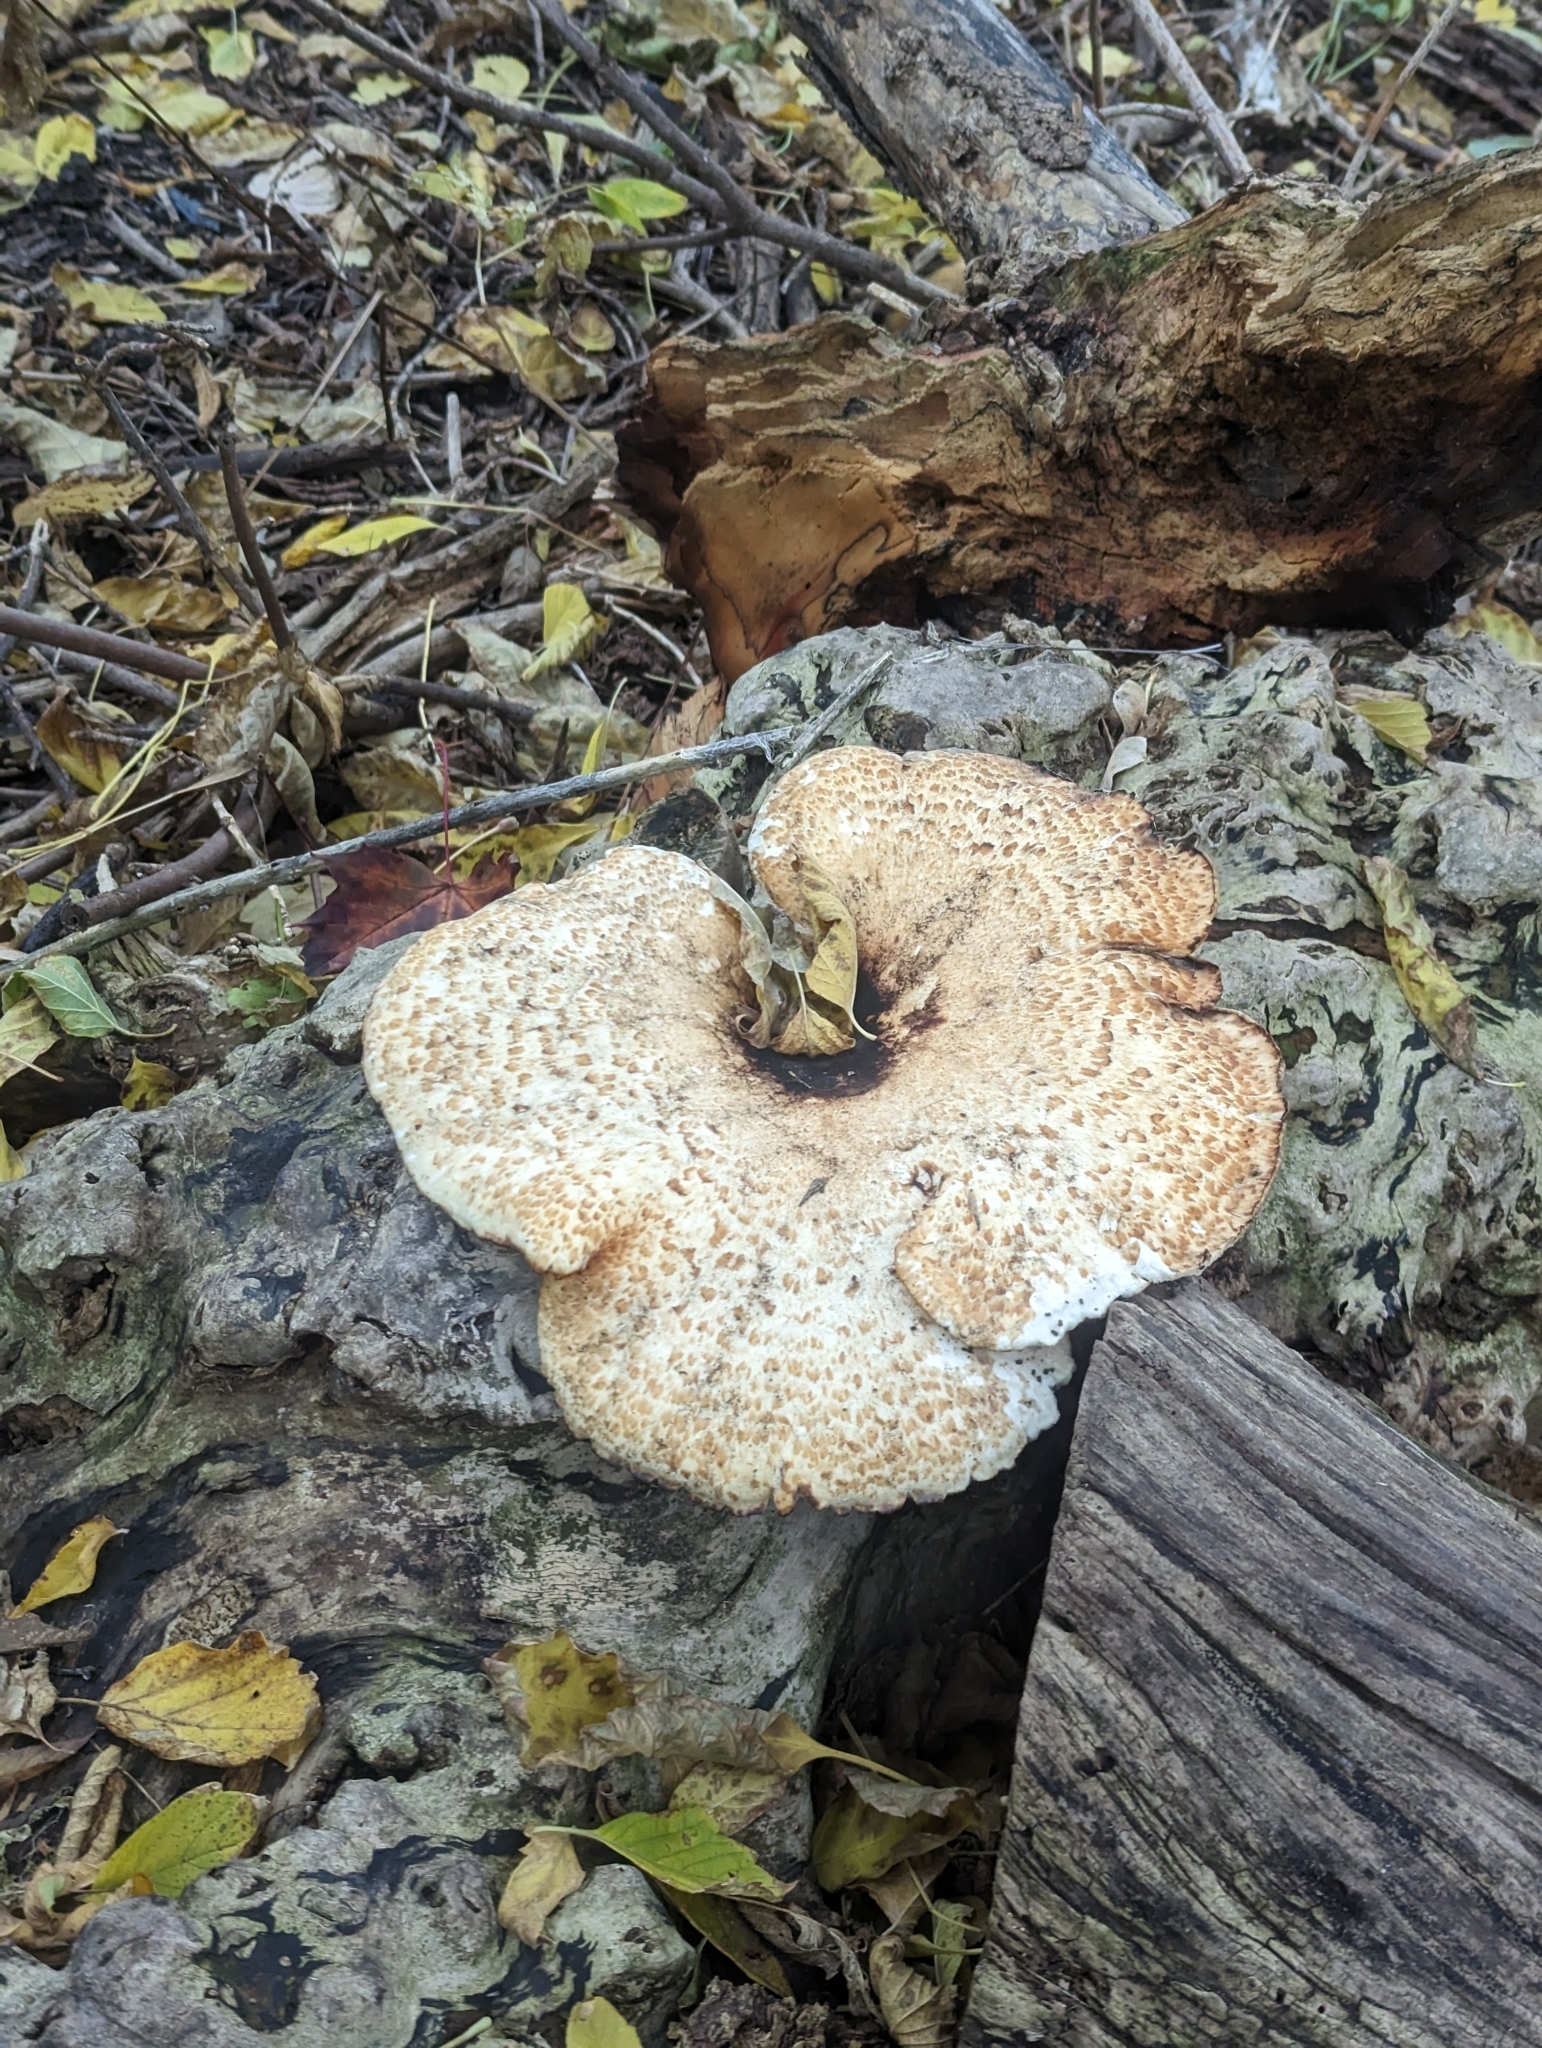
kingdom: Fungi
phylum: Basidiomycota
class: Agaricomycetes
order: Polyporales
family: Polyporaceae
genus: Cerioporus
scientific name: Cerioporus squamosus
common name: Dryad's saddle
